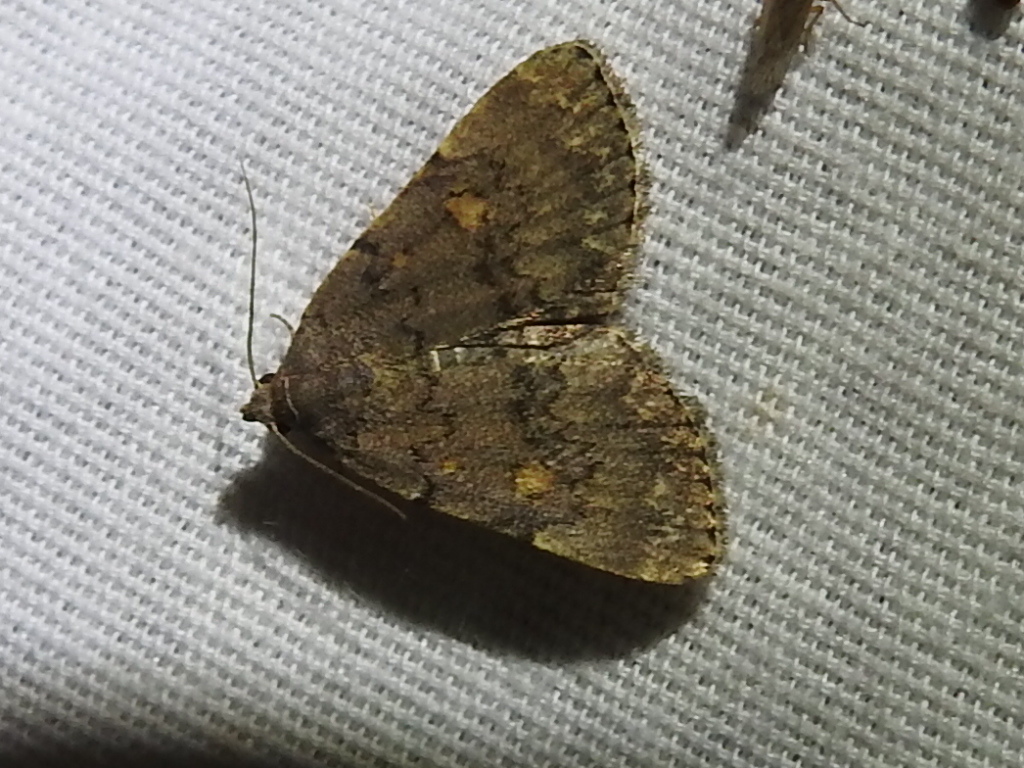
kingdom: Animalia
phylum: Arthropoda
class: Insecta
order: Lepidoptera
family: Erebidae
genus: Idia
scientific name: Idia aemula
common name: Common idia moth
